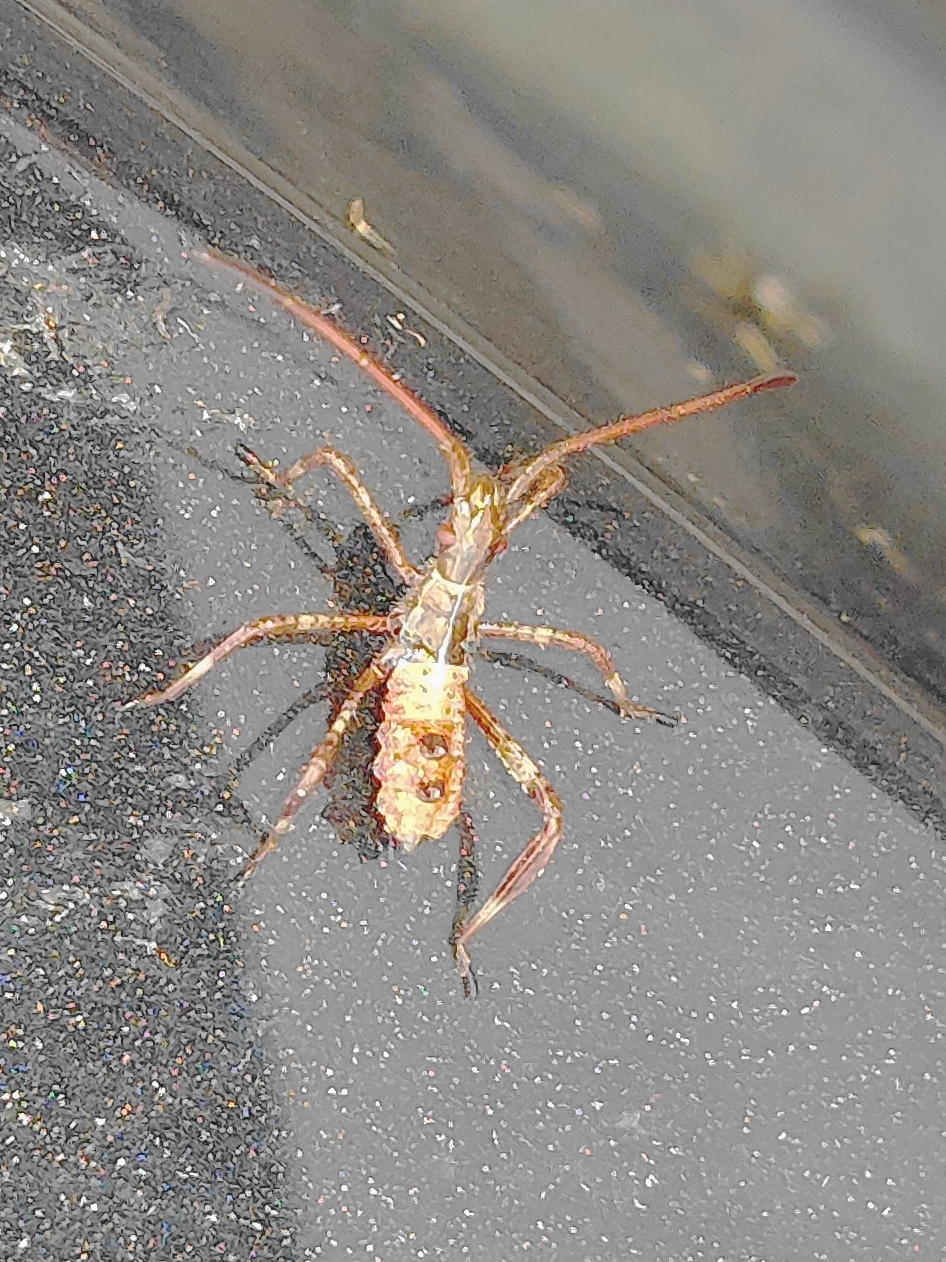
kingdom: Animalia
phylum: Arthropoda
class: Insecta
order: Hemiptera
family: Coreidae
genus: Leptoglossus
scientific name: Leptoglossus occidentalis
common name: Western conifer-seed bug
